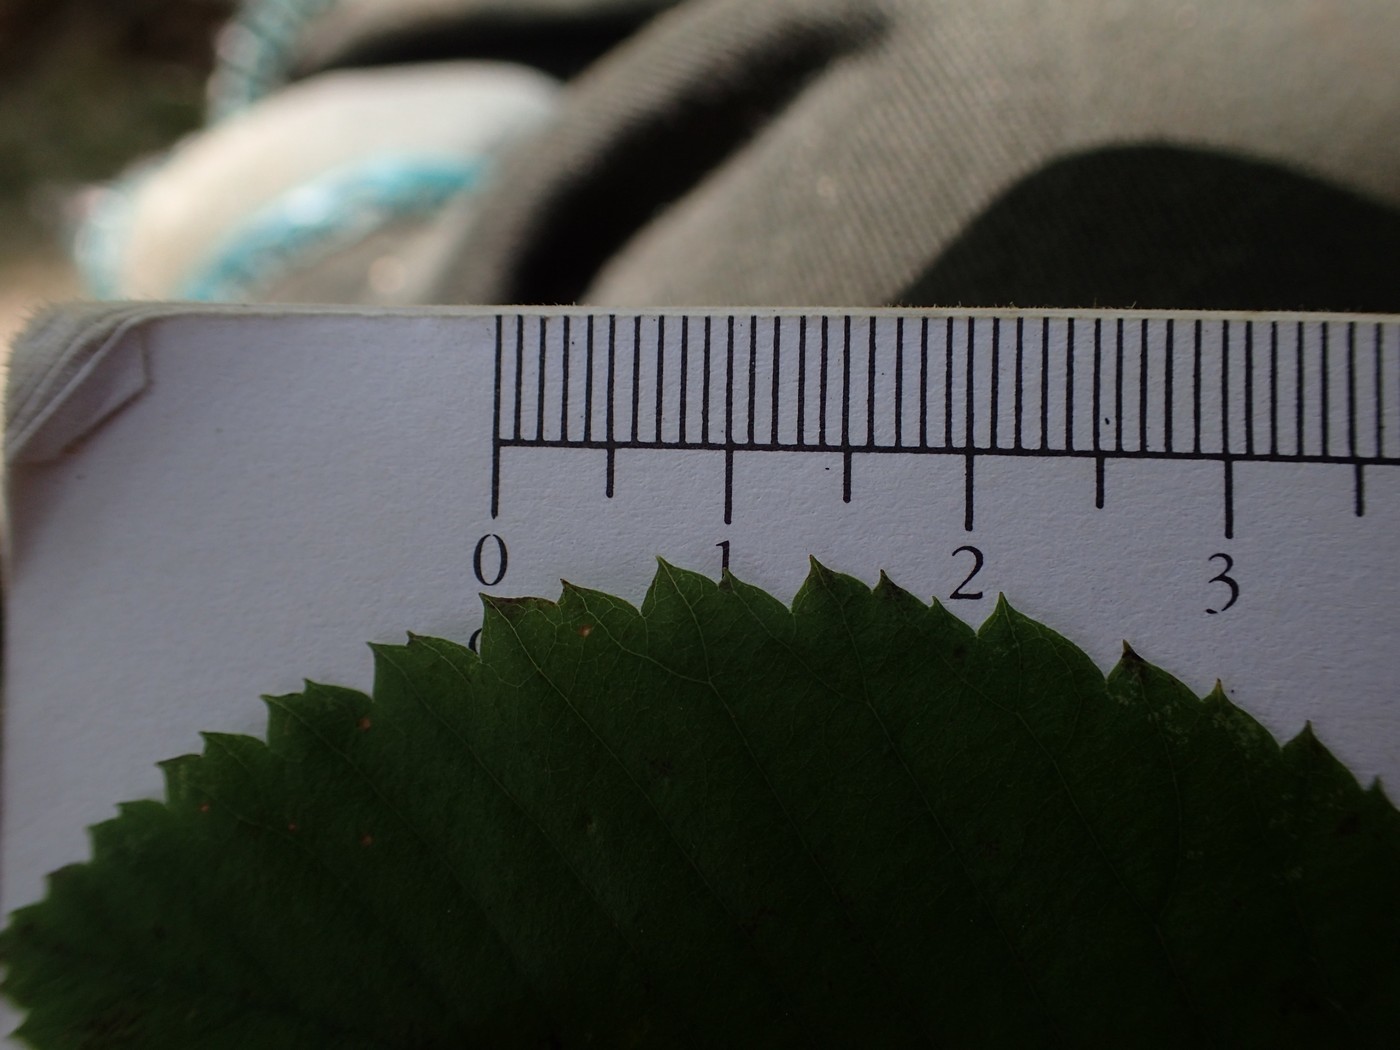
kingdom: Plantae
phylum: Tracheophyta
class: Magnoliopsida
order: Rosales
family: Rosaceae
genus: Amelanchier
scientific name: Amelanchier sanguinea
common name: Huron serviceberry
